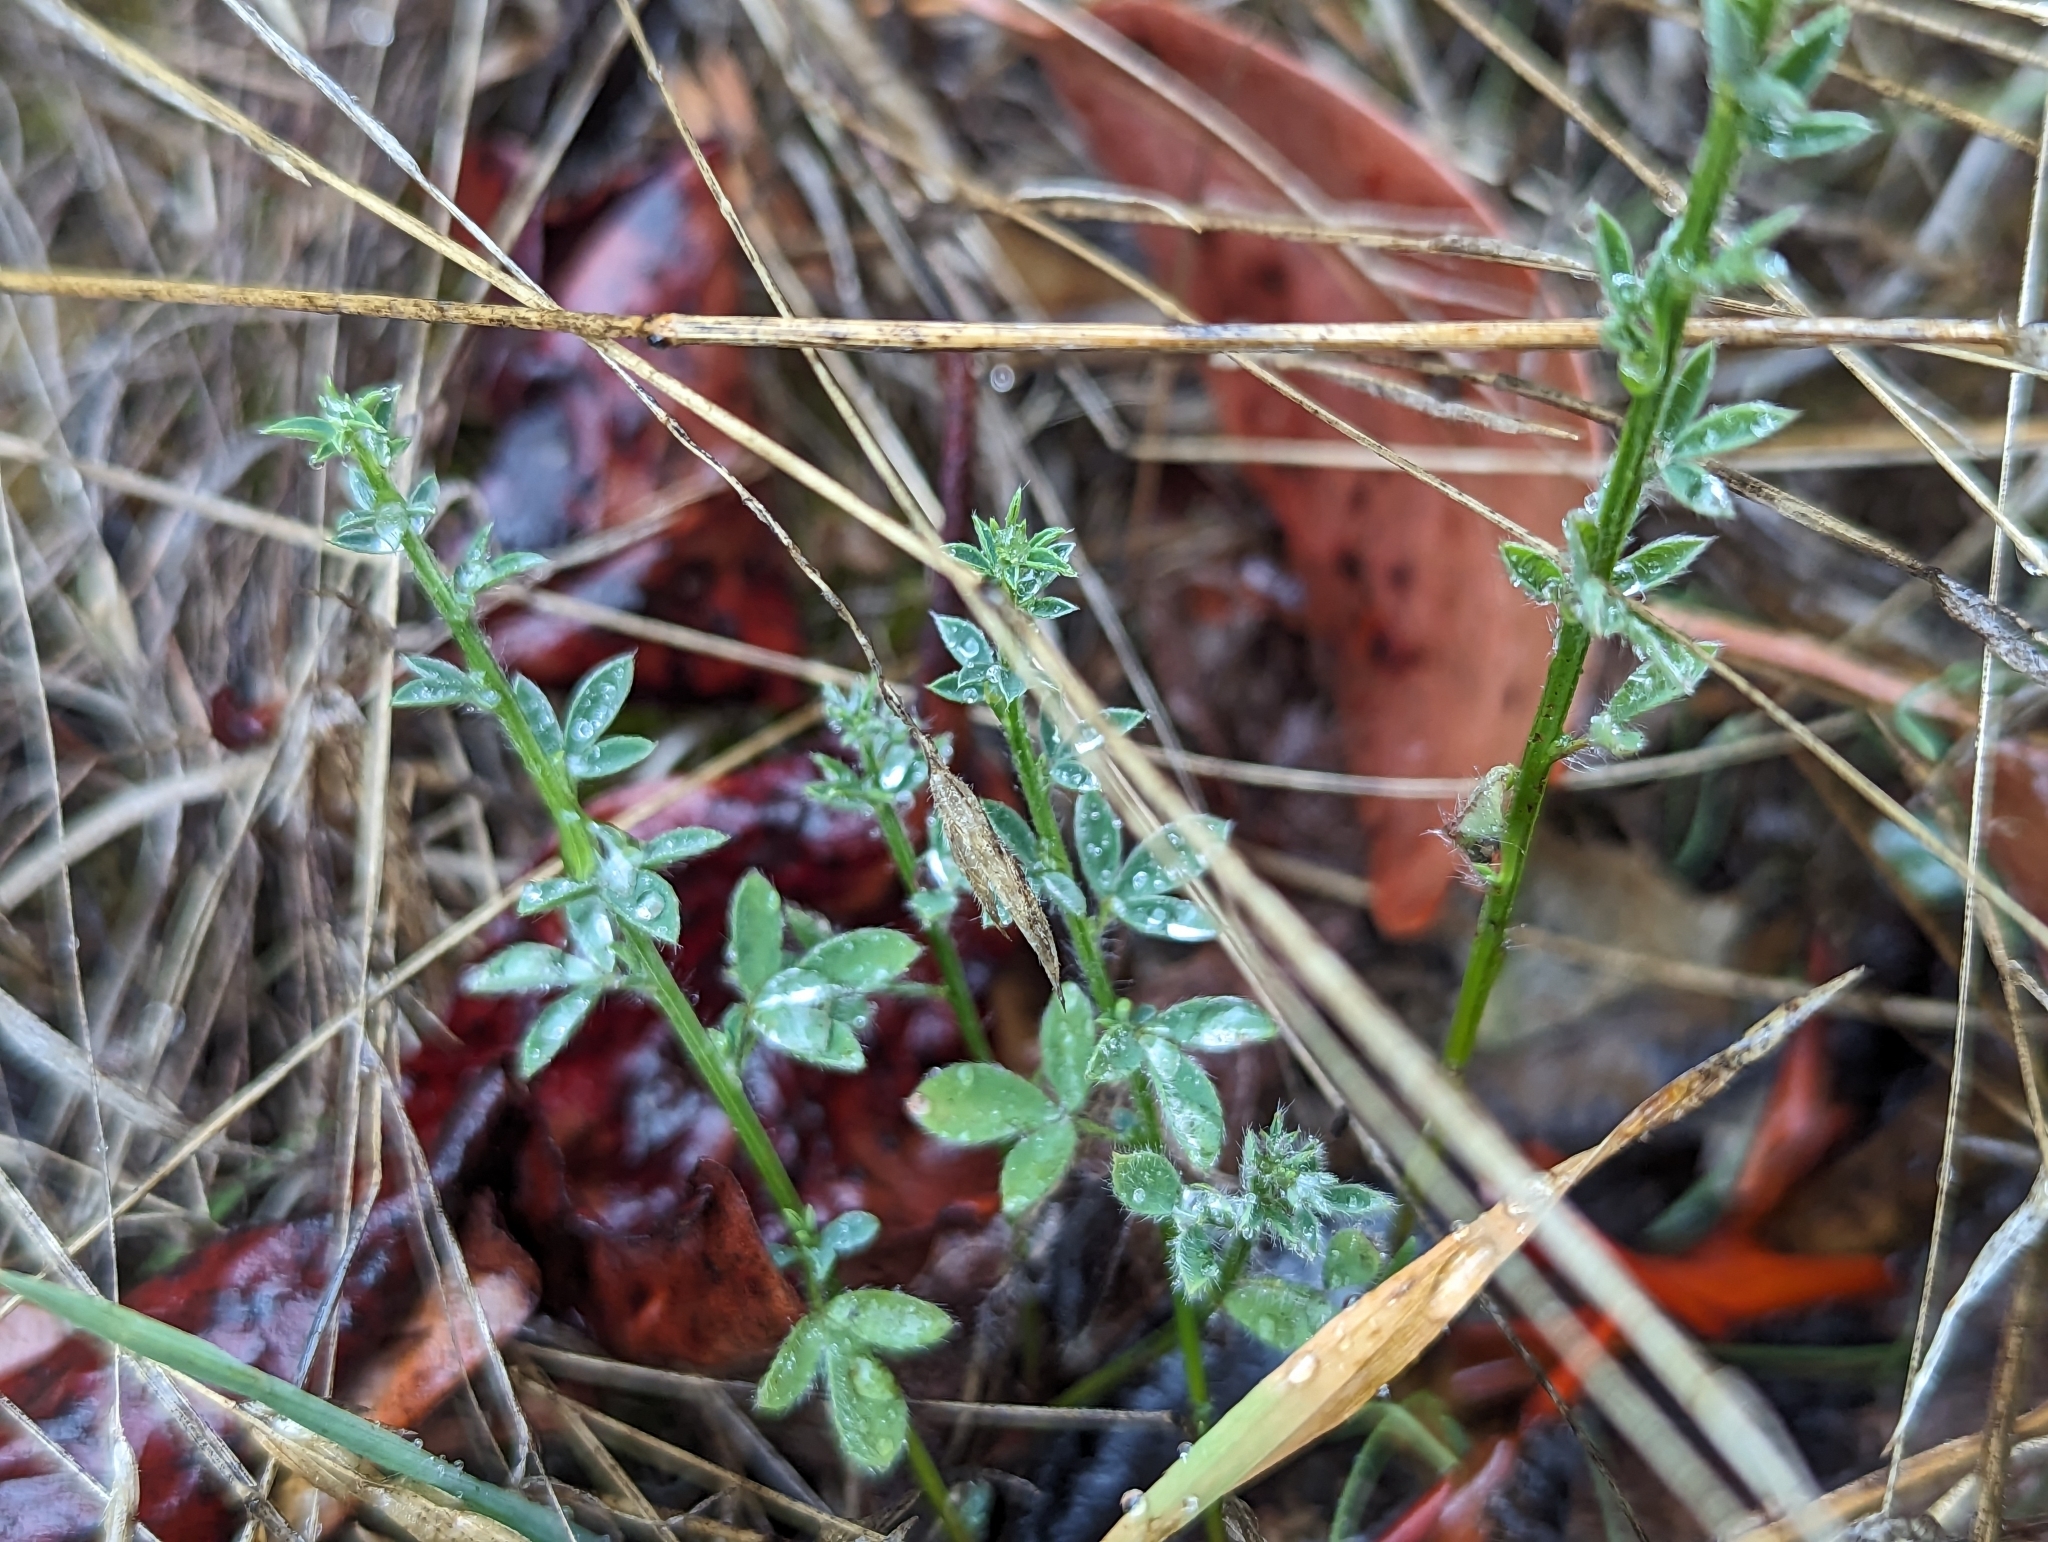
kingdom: Plantae
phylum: Tracheophyta
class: Magnoliopsida
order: Fabales
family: Fabaceae
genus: Cytisus
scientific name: Cytisus scoparius
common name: Scotch broom
